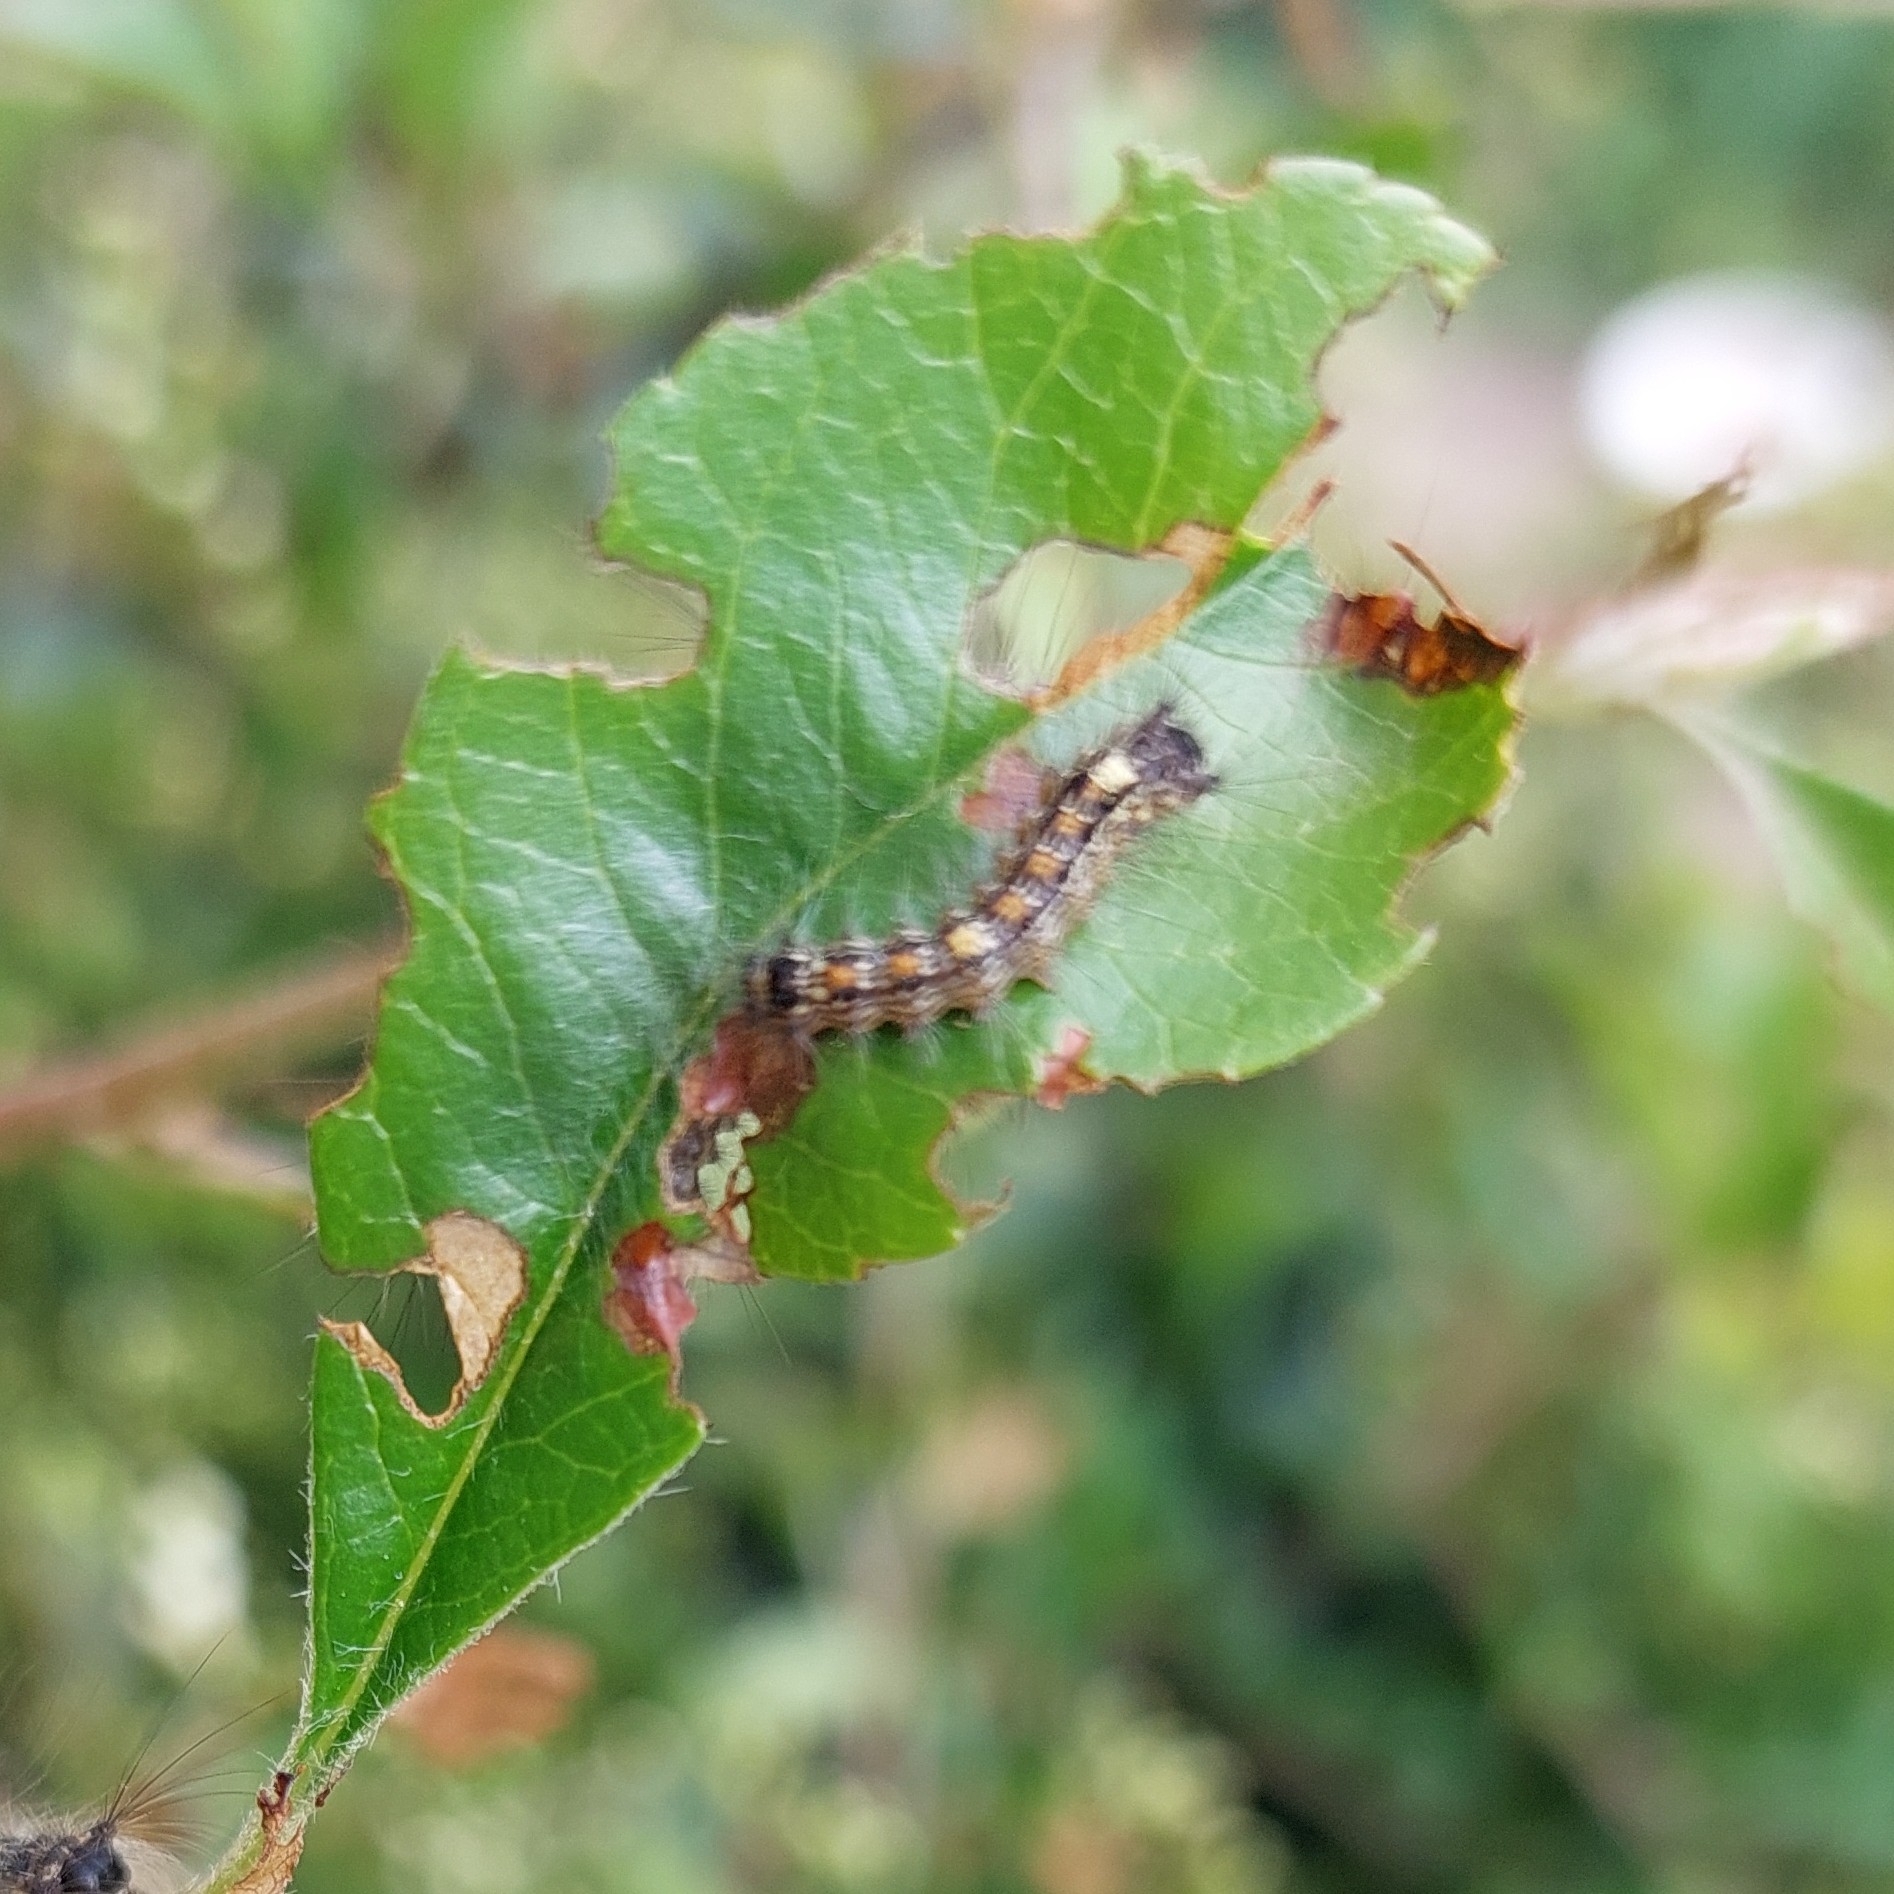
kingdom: Animalia
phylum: Arthropoda
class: Insecta
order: Lepidoptera
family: Erebidae
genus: Lymantria
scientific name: Lymantria dispar
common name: Gypsy moth
